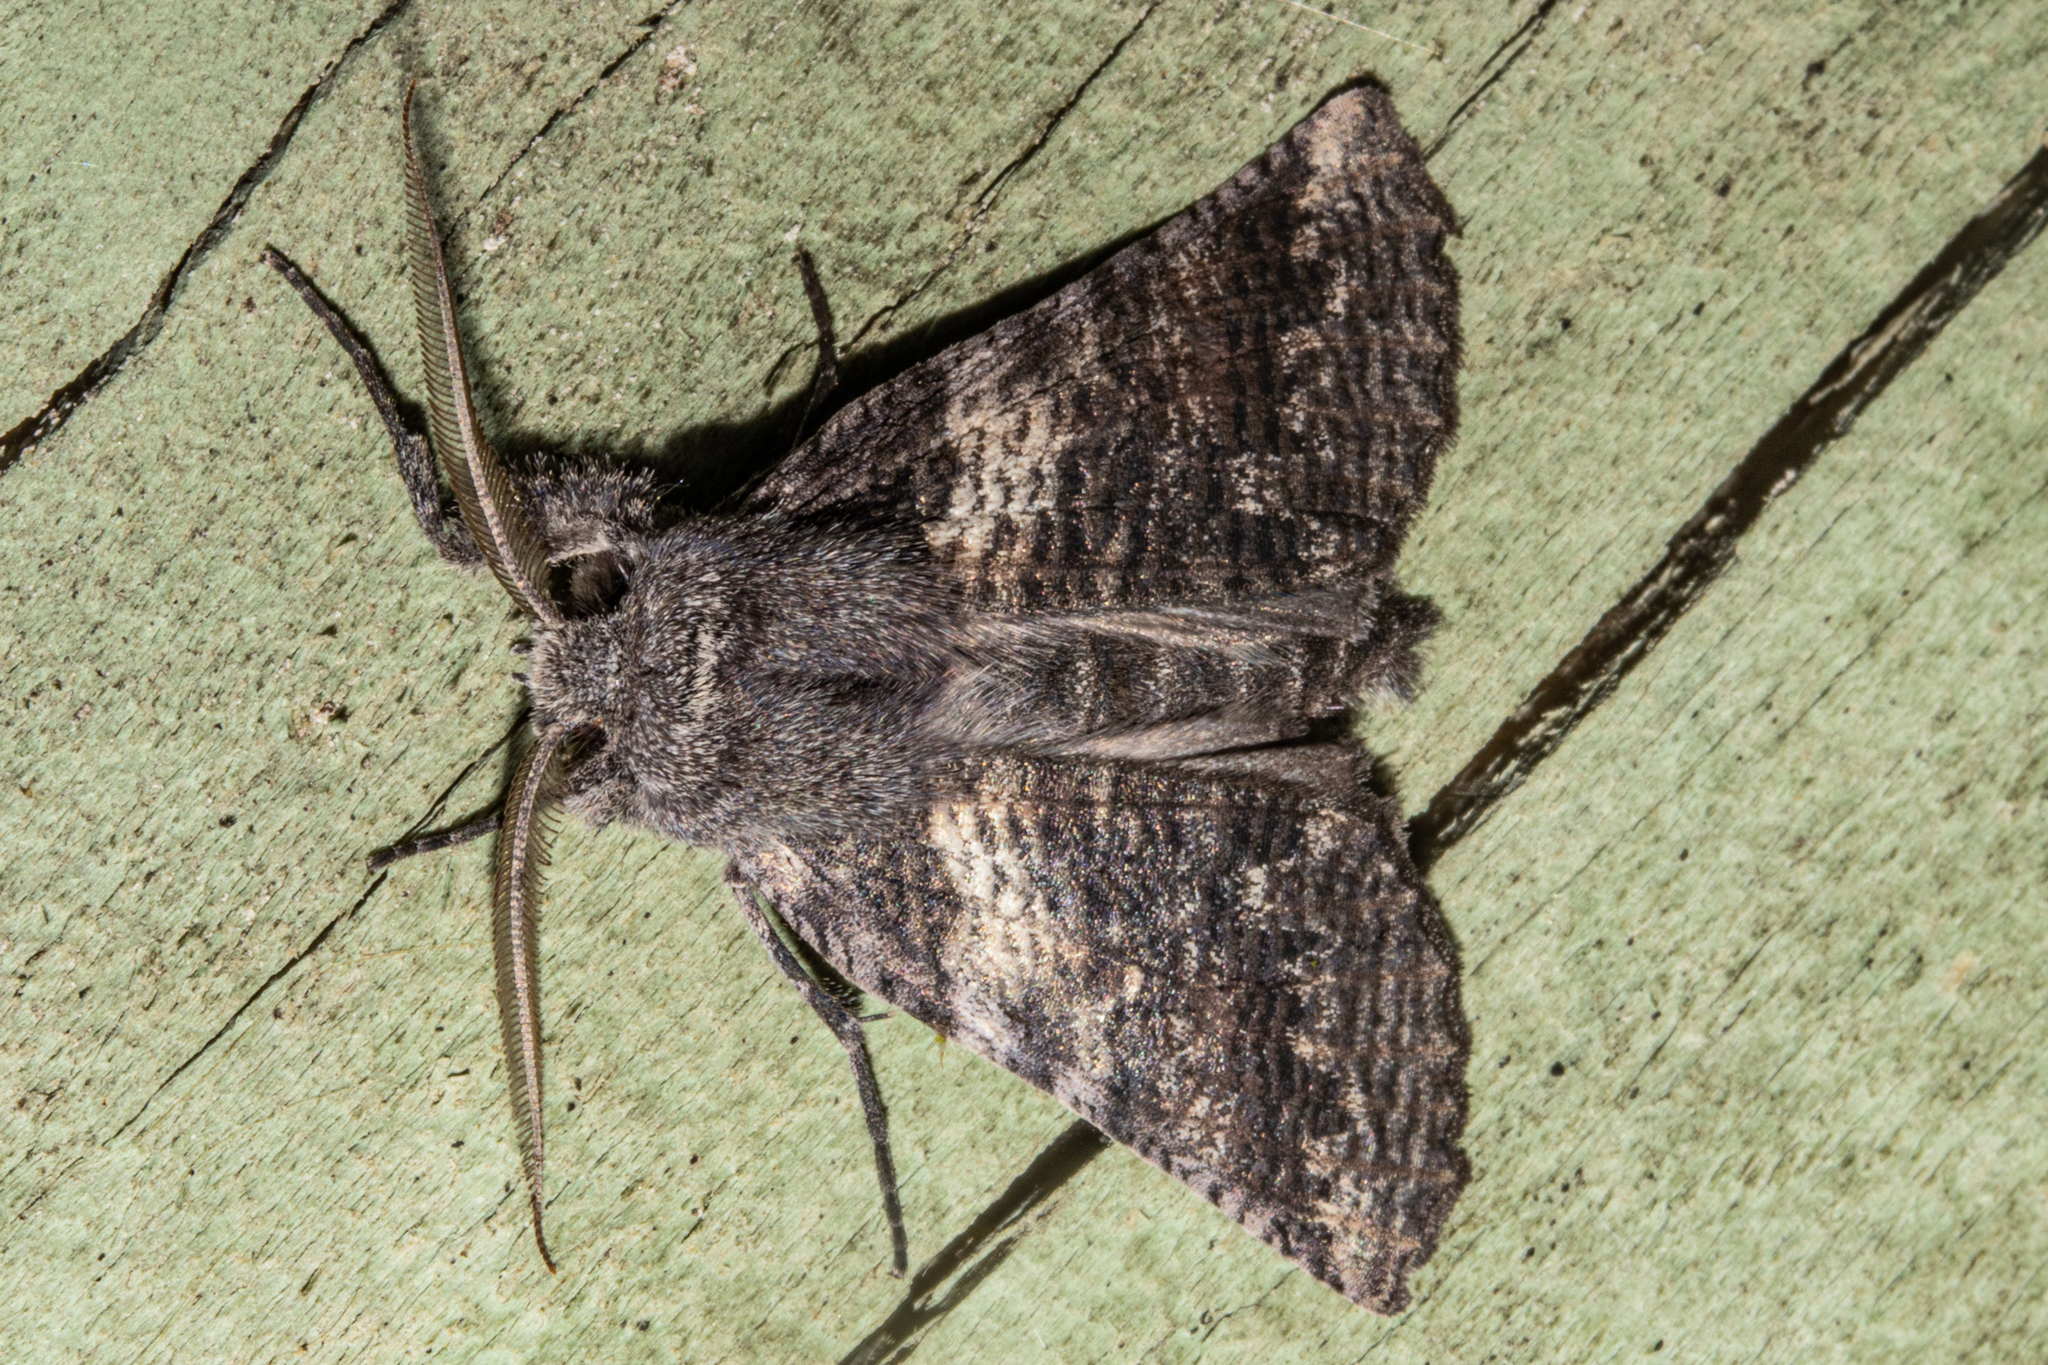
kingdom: Animalia
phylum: Arthropoda
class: Insecta
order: Lepidoptera
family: Geometridae
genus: Declana
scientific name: Declana
